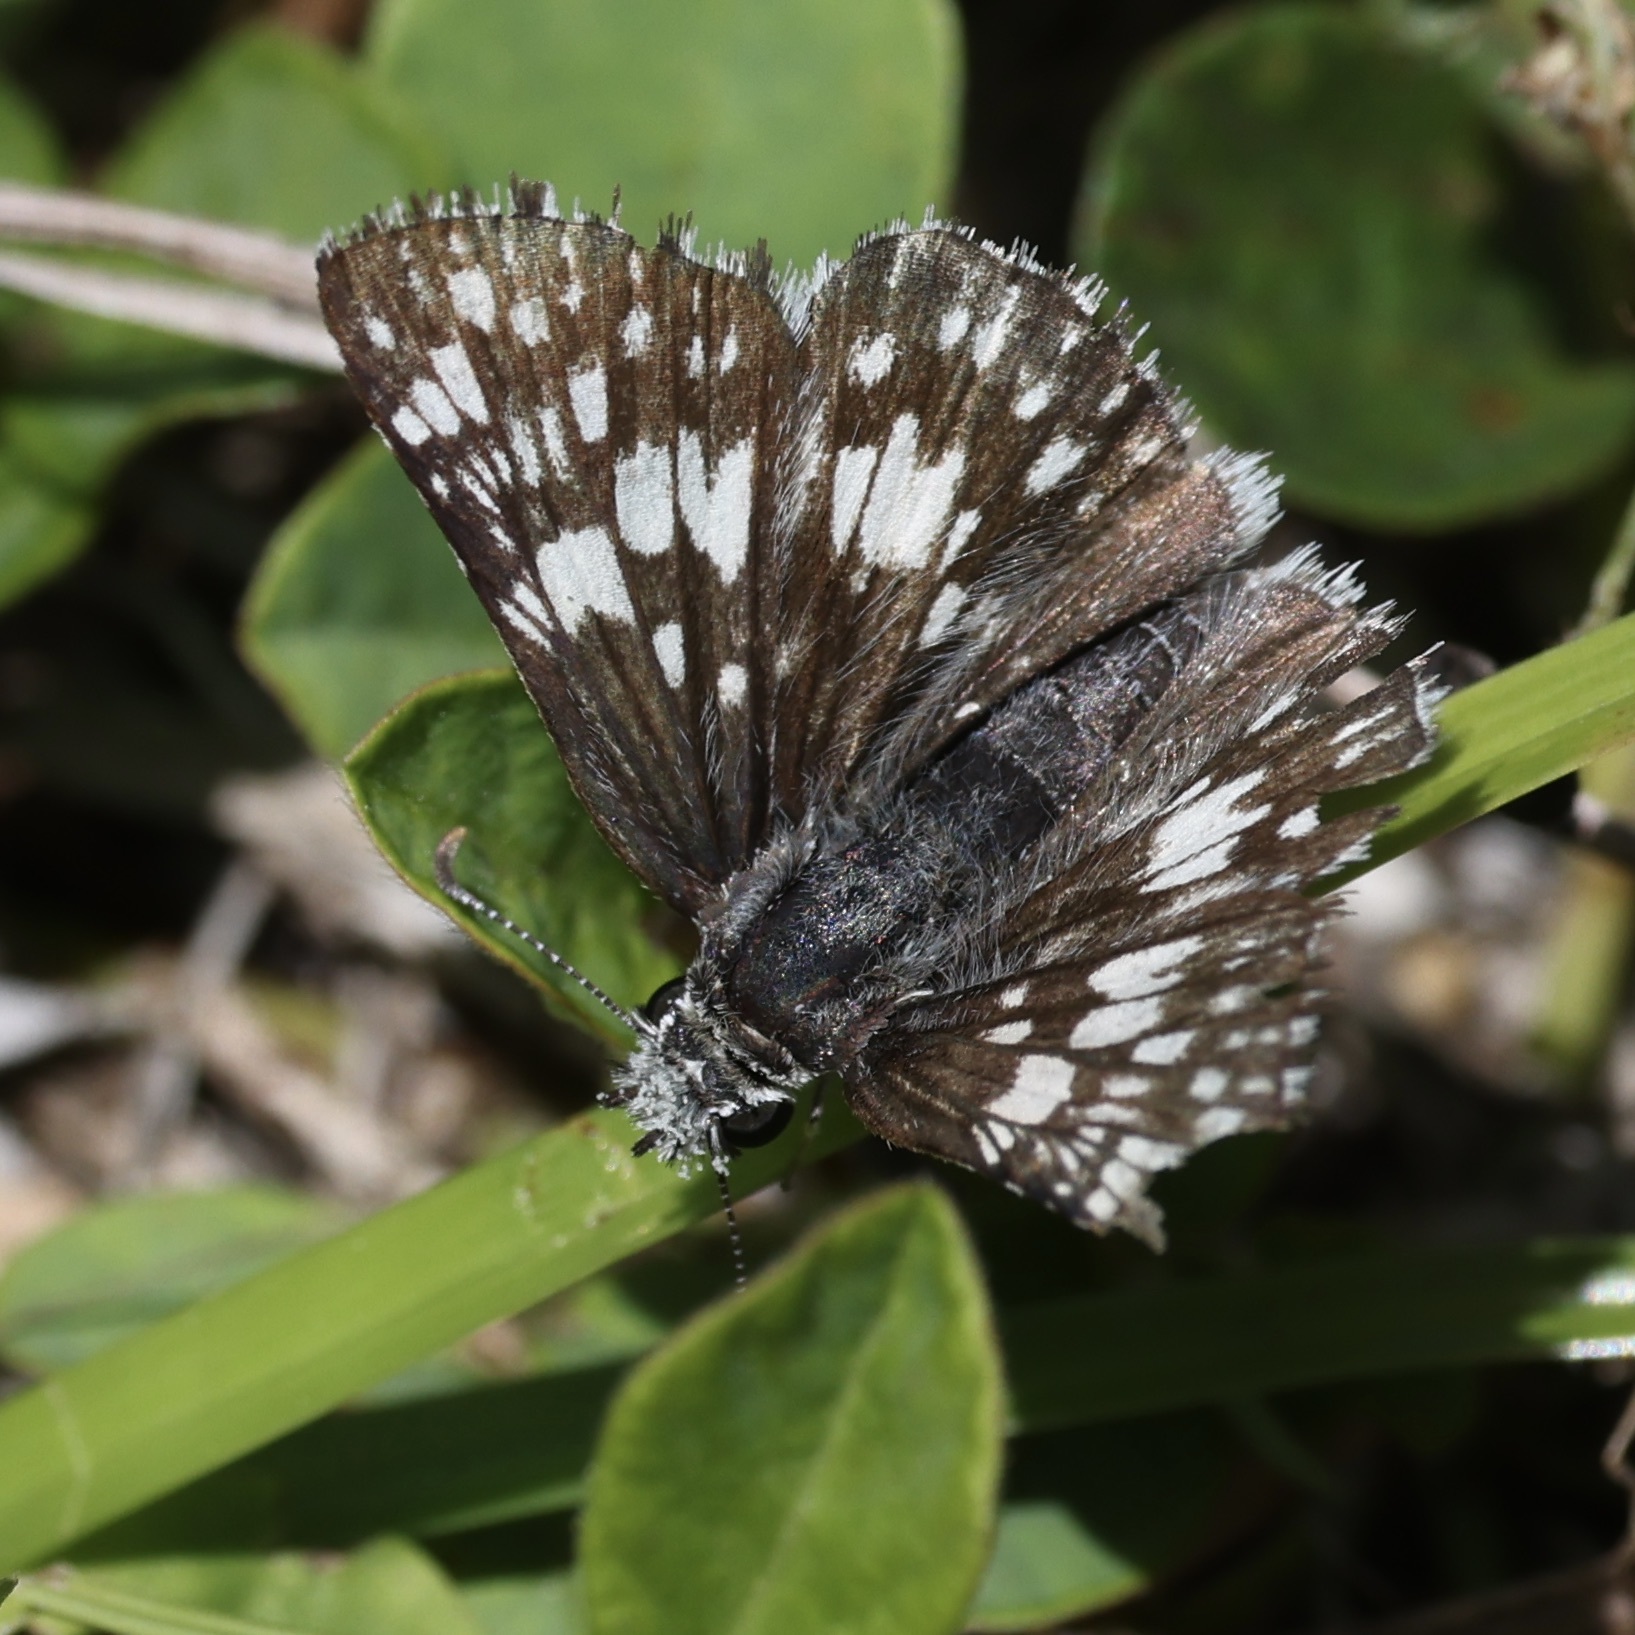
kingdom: Animalia
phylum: Arthropoda
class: Insecta
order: Lepidoptera
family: Hesperiidae
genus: Burnsius
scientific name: Burnsius albezens
